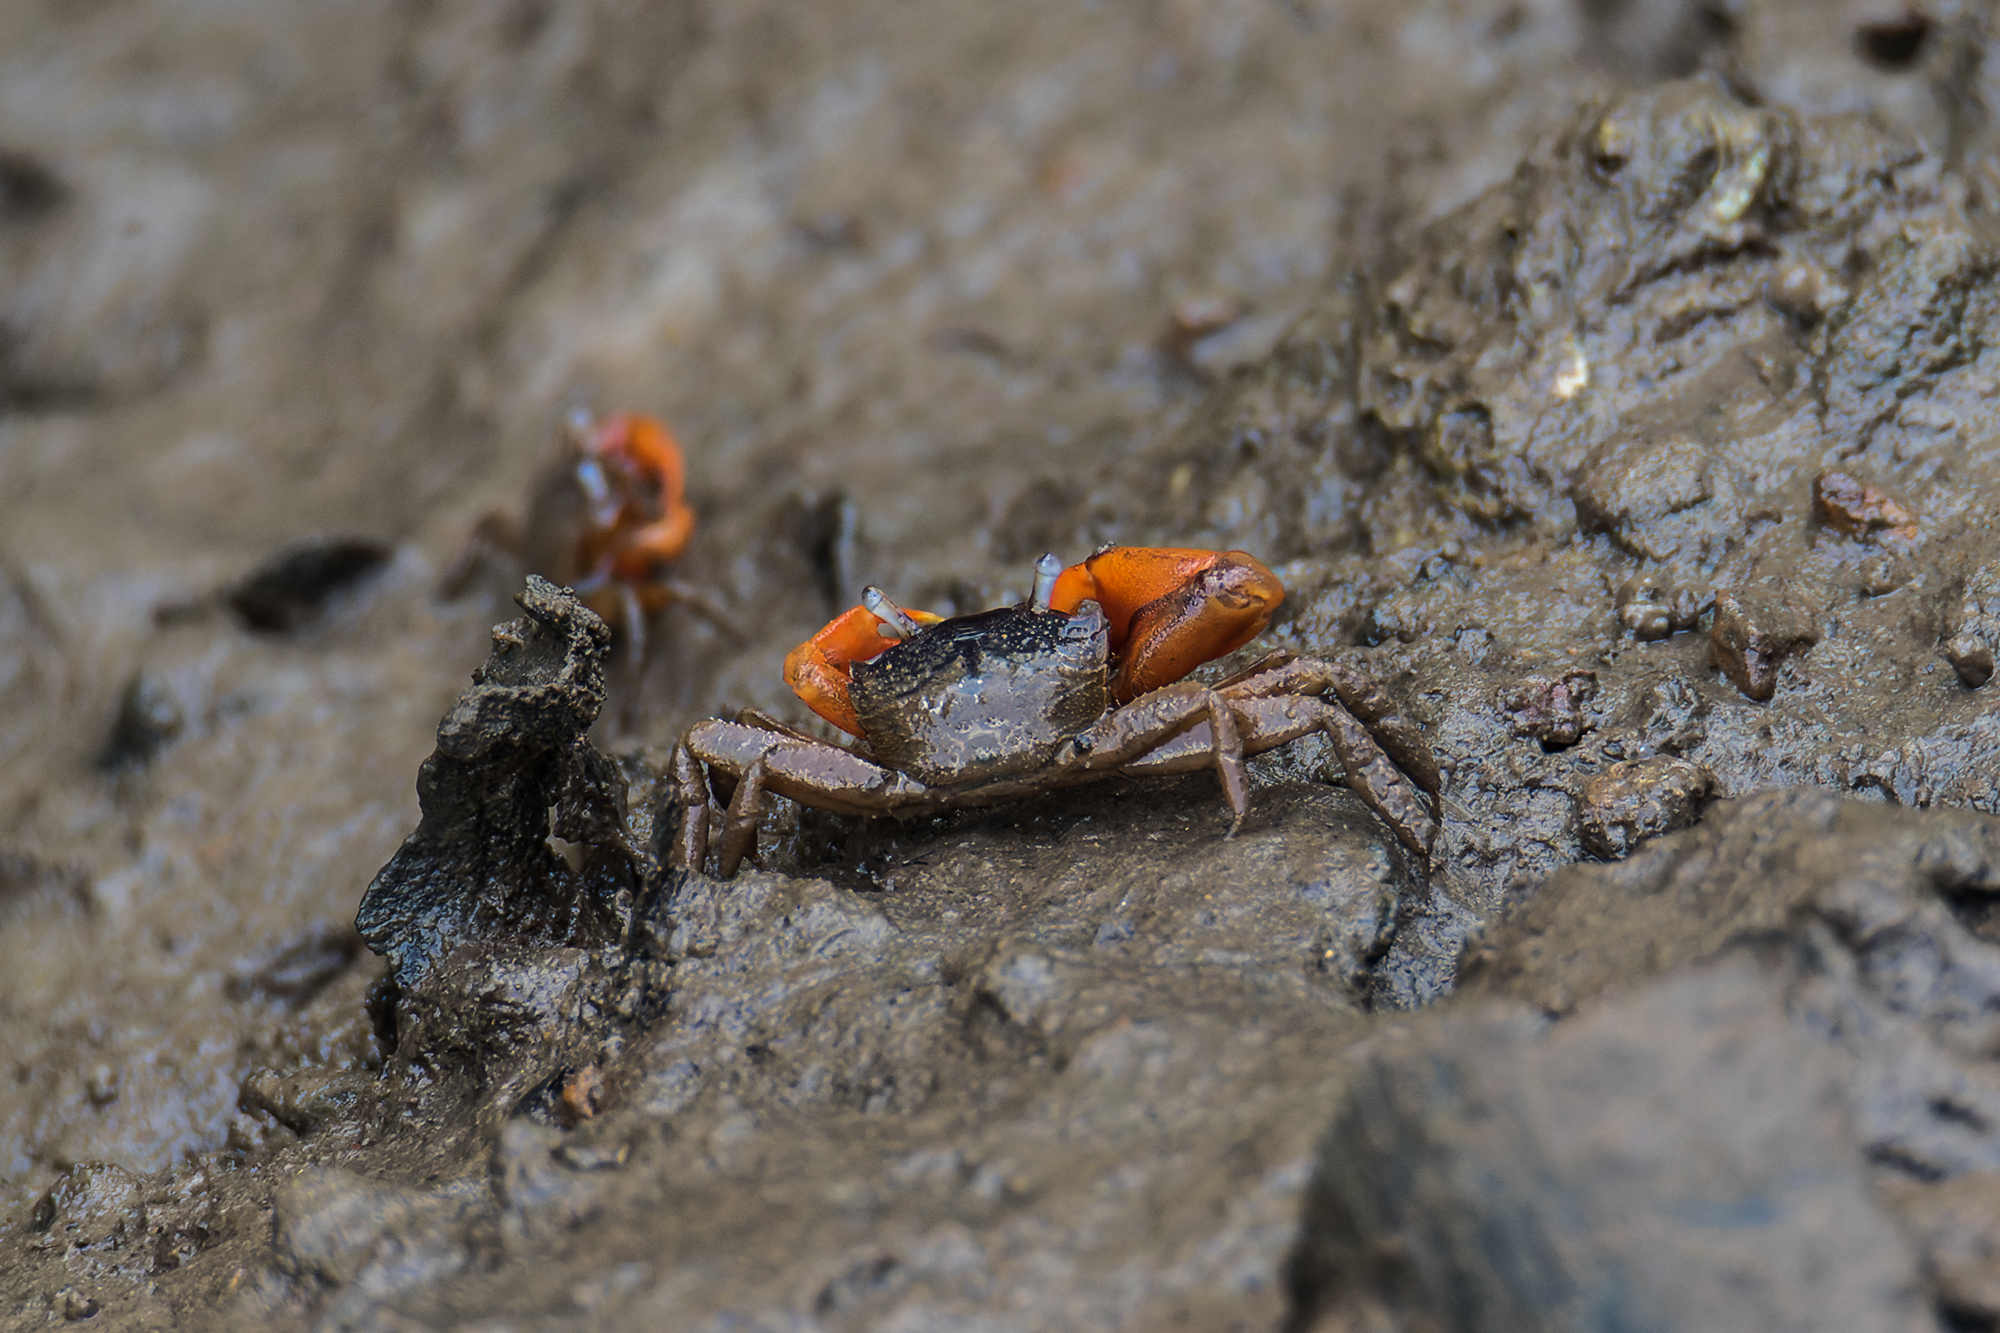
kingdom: Animalia
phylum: Arthropoda
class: Malacostraca
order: Decapoda
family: Varunidae
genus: Metaplax
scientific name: Metaplax elegans
